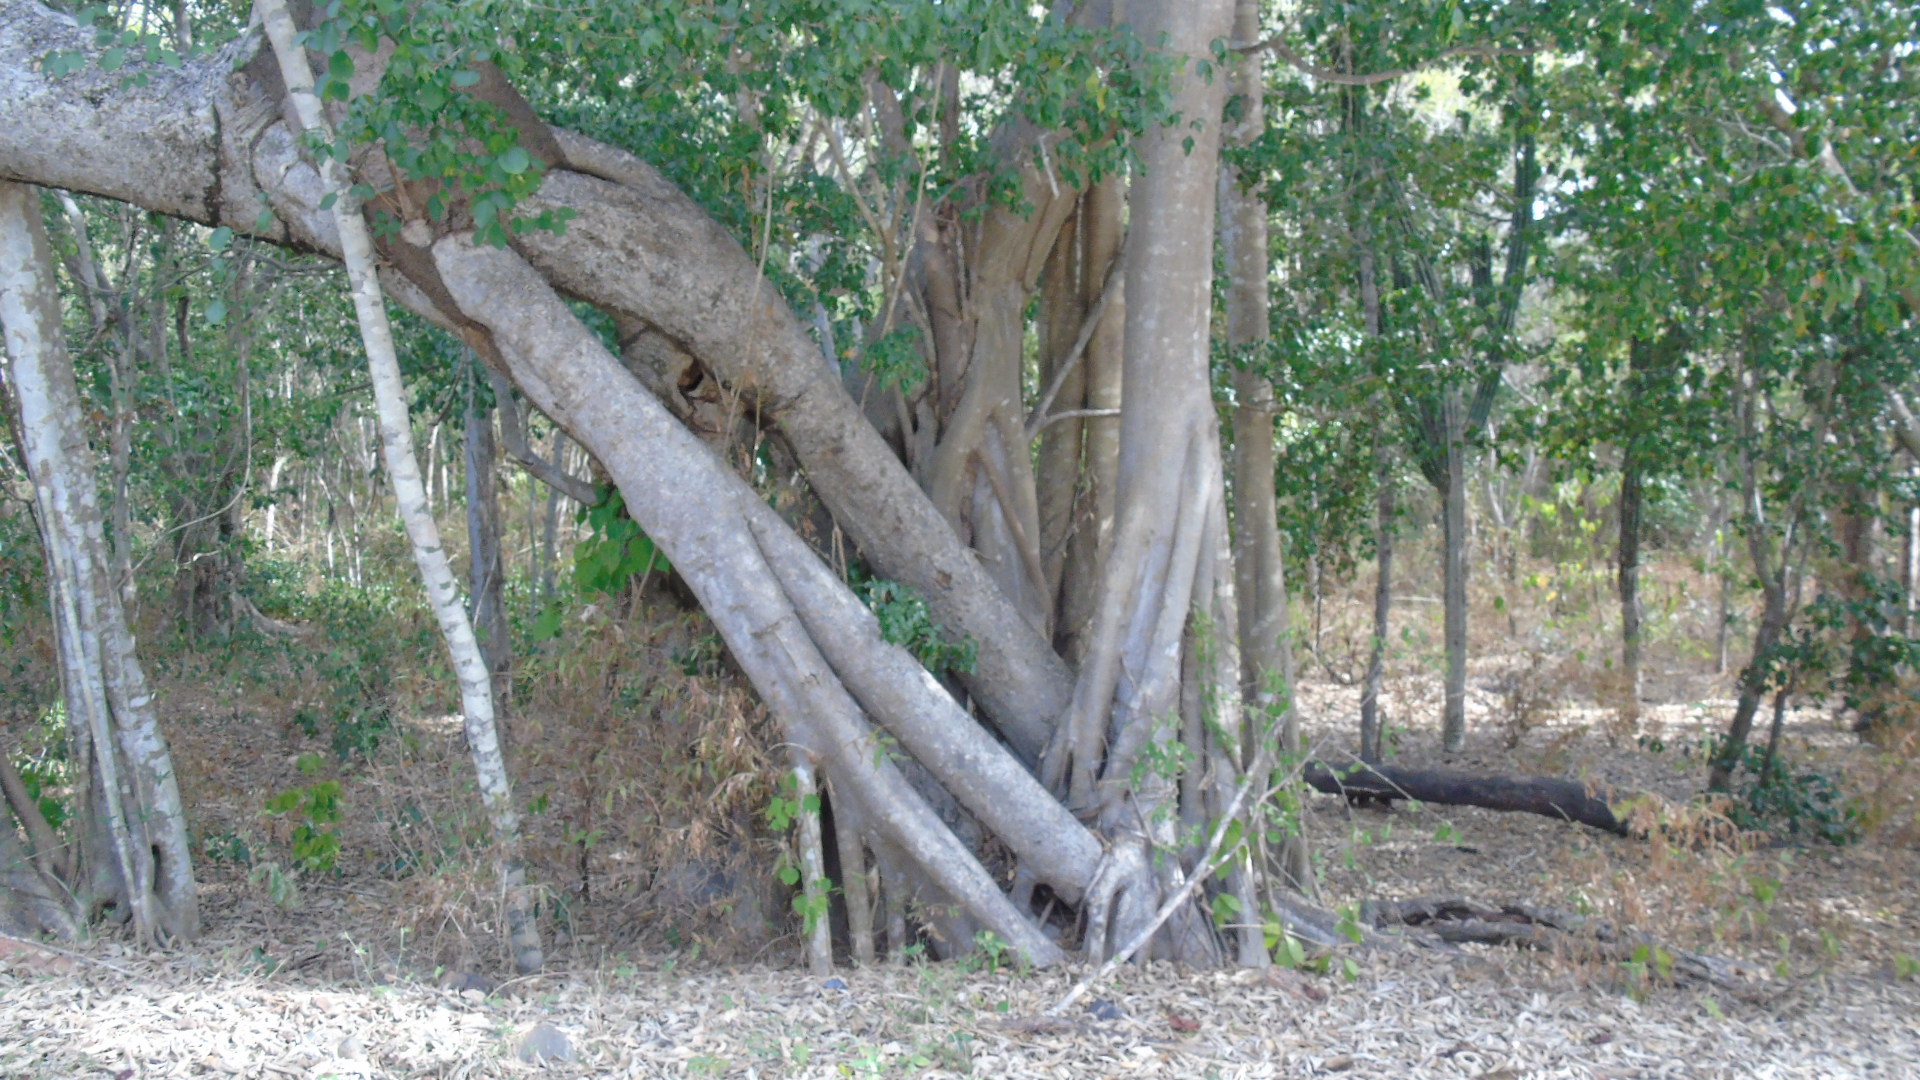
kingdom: Plantae
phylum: Tracheophyta
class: Magnoliopsida
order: Rosales
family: Moraceae
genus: Ficus
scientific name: Ficus cotinifolia
